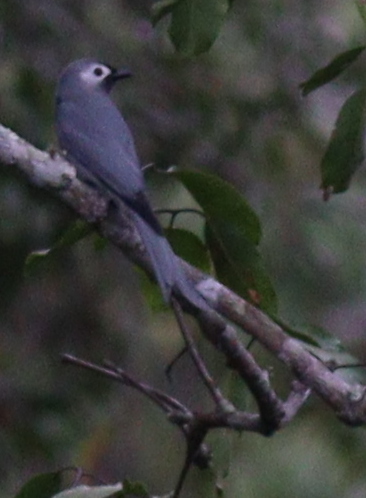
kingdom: Animalia
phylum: Chordata
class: Aves
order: Passeriformes
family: Dicruridae
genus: Dicrurus
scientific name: Dicrurus leucophaeus
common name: Ashy drongo
